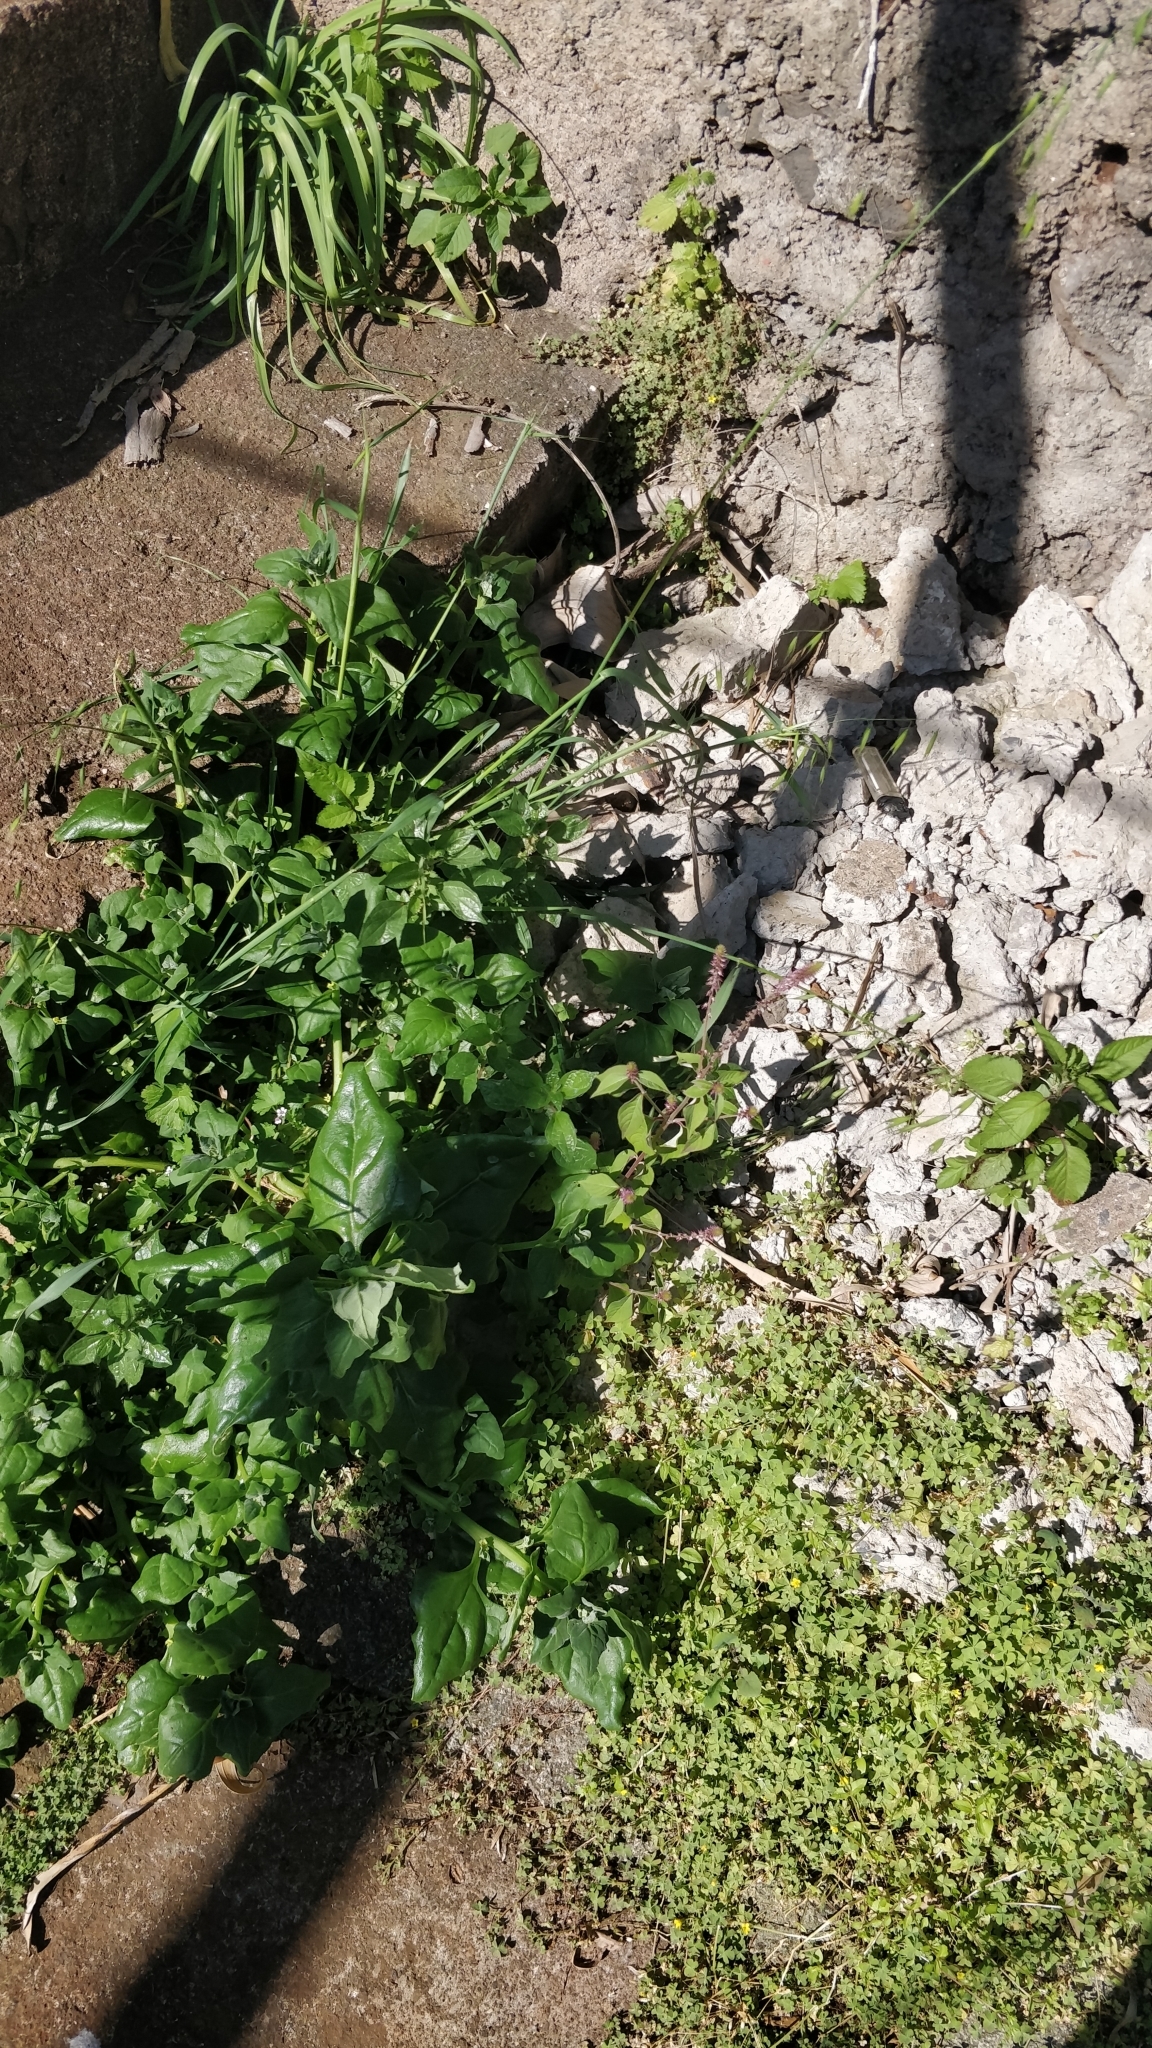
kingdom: Plantae
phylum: Tracheophyta
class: Magnoliopsida
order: Caryophyllales
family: Aizoaceae
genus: Tetragonia
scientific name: Tetragonia tetragonoides
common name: New zealand-spinach
